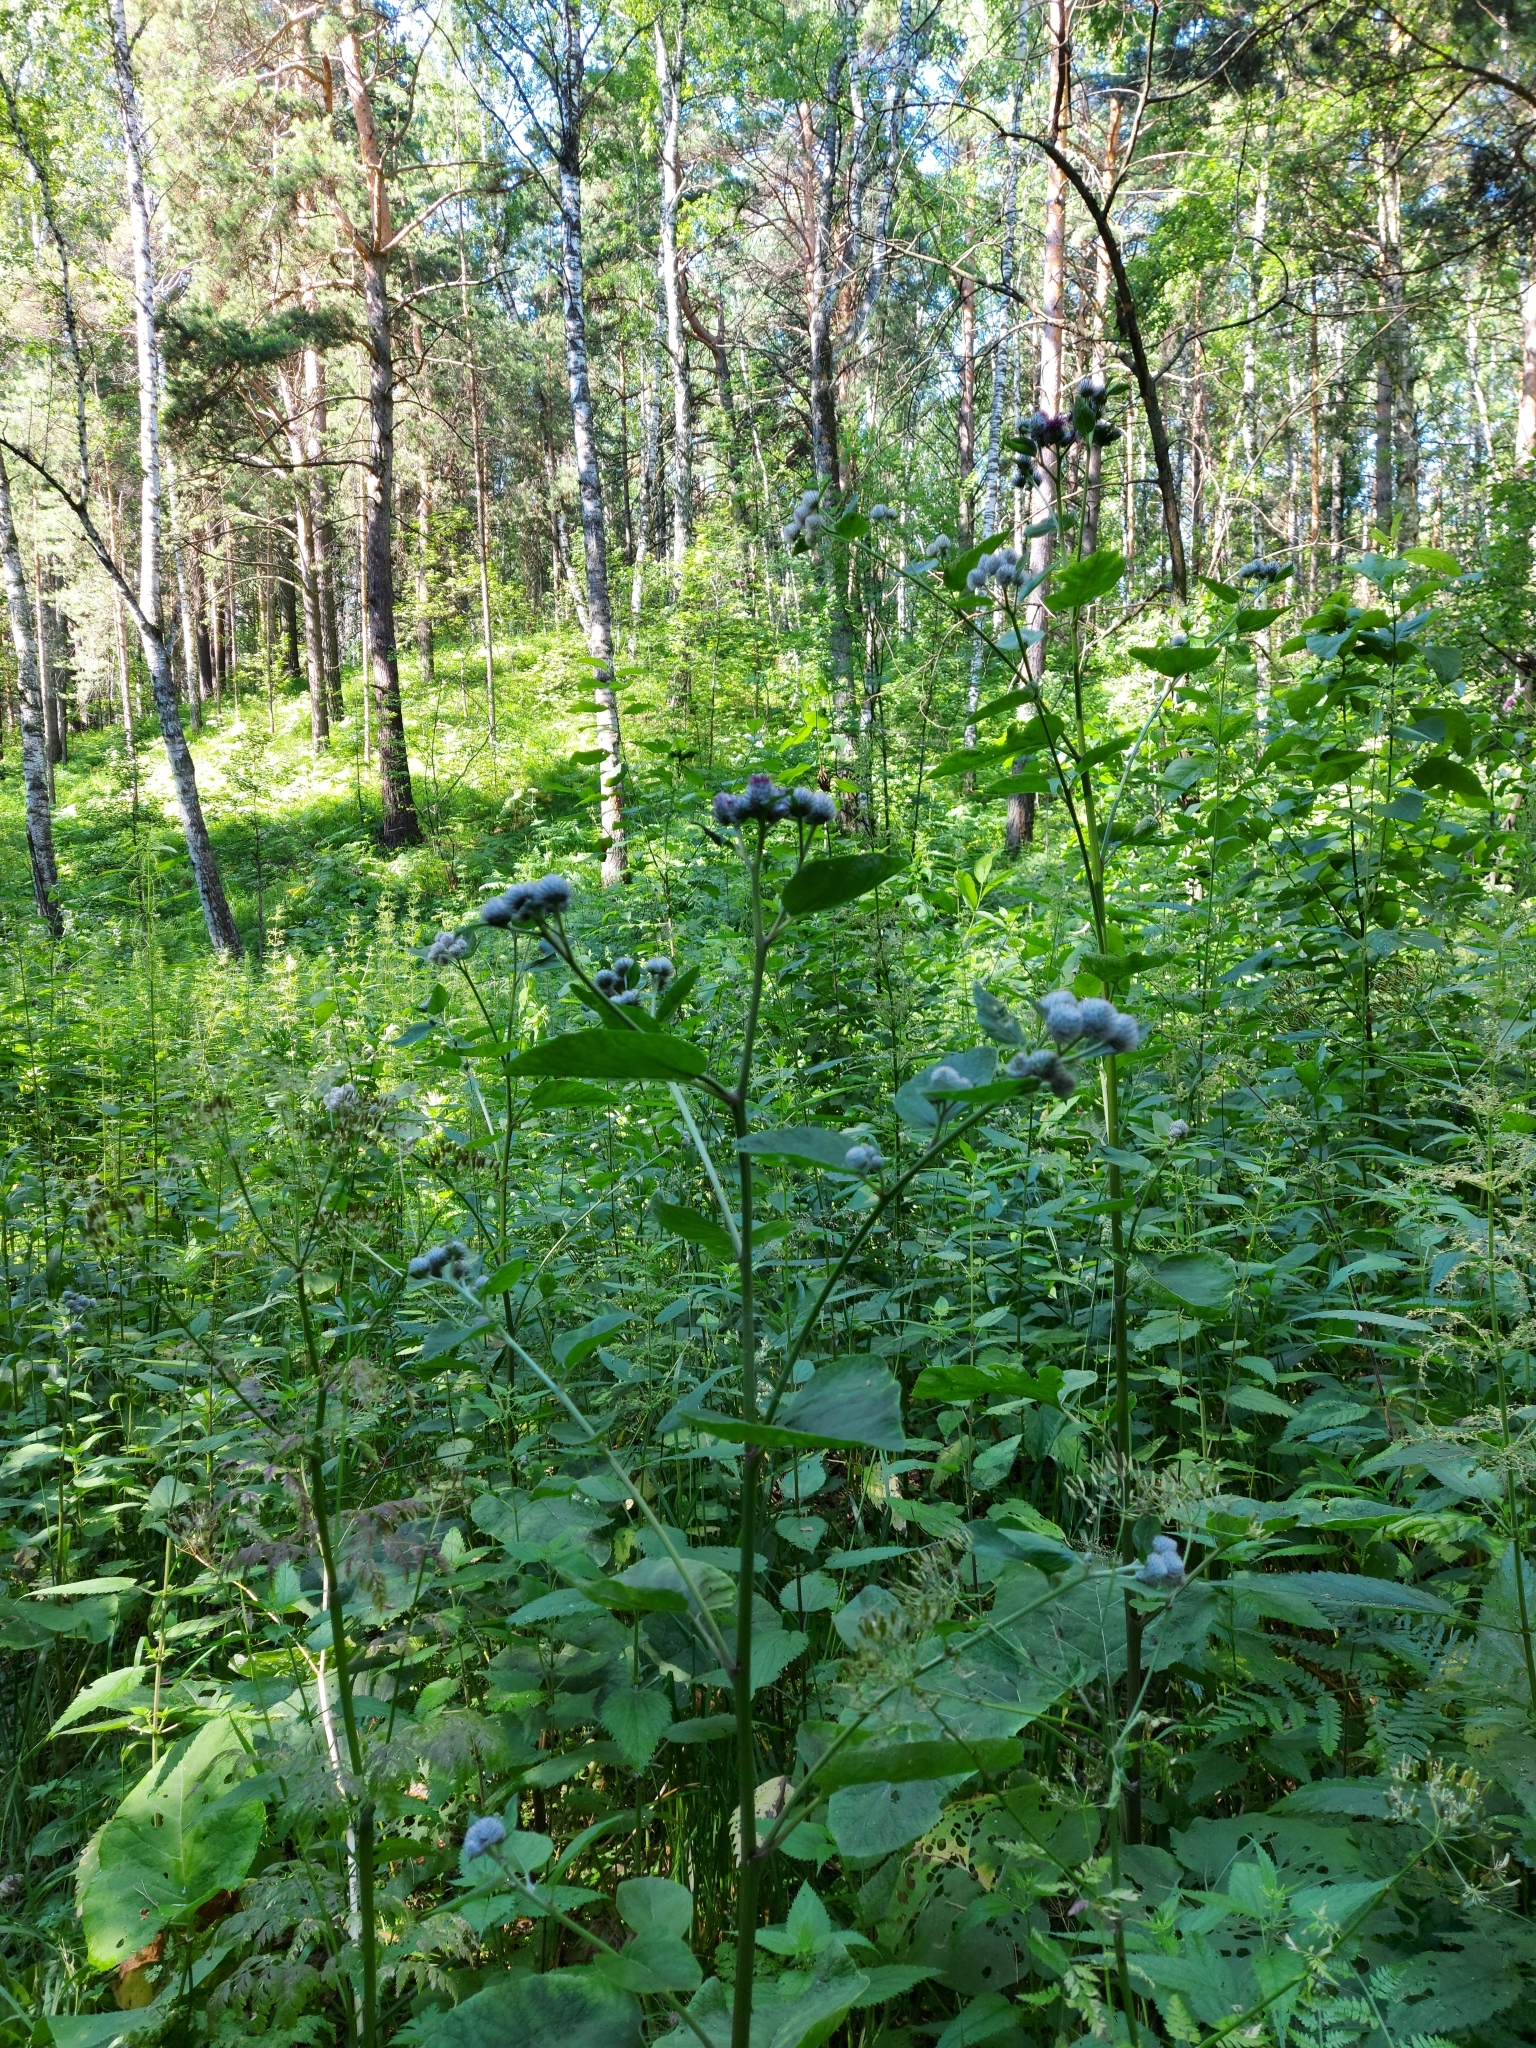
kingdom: Plantae
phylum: Tracheophyta
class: Magnoliopsida
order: Asterales
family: Asteraceae
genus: Arctium
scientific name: Arctium tomentosum
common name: Woolly burdock
